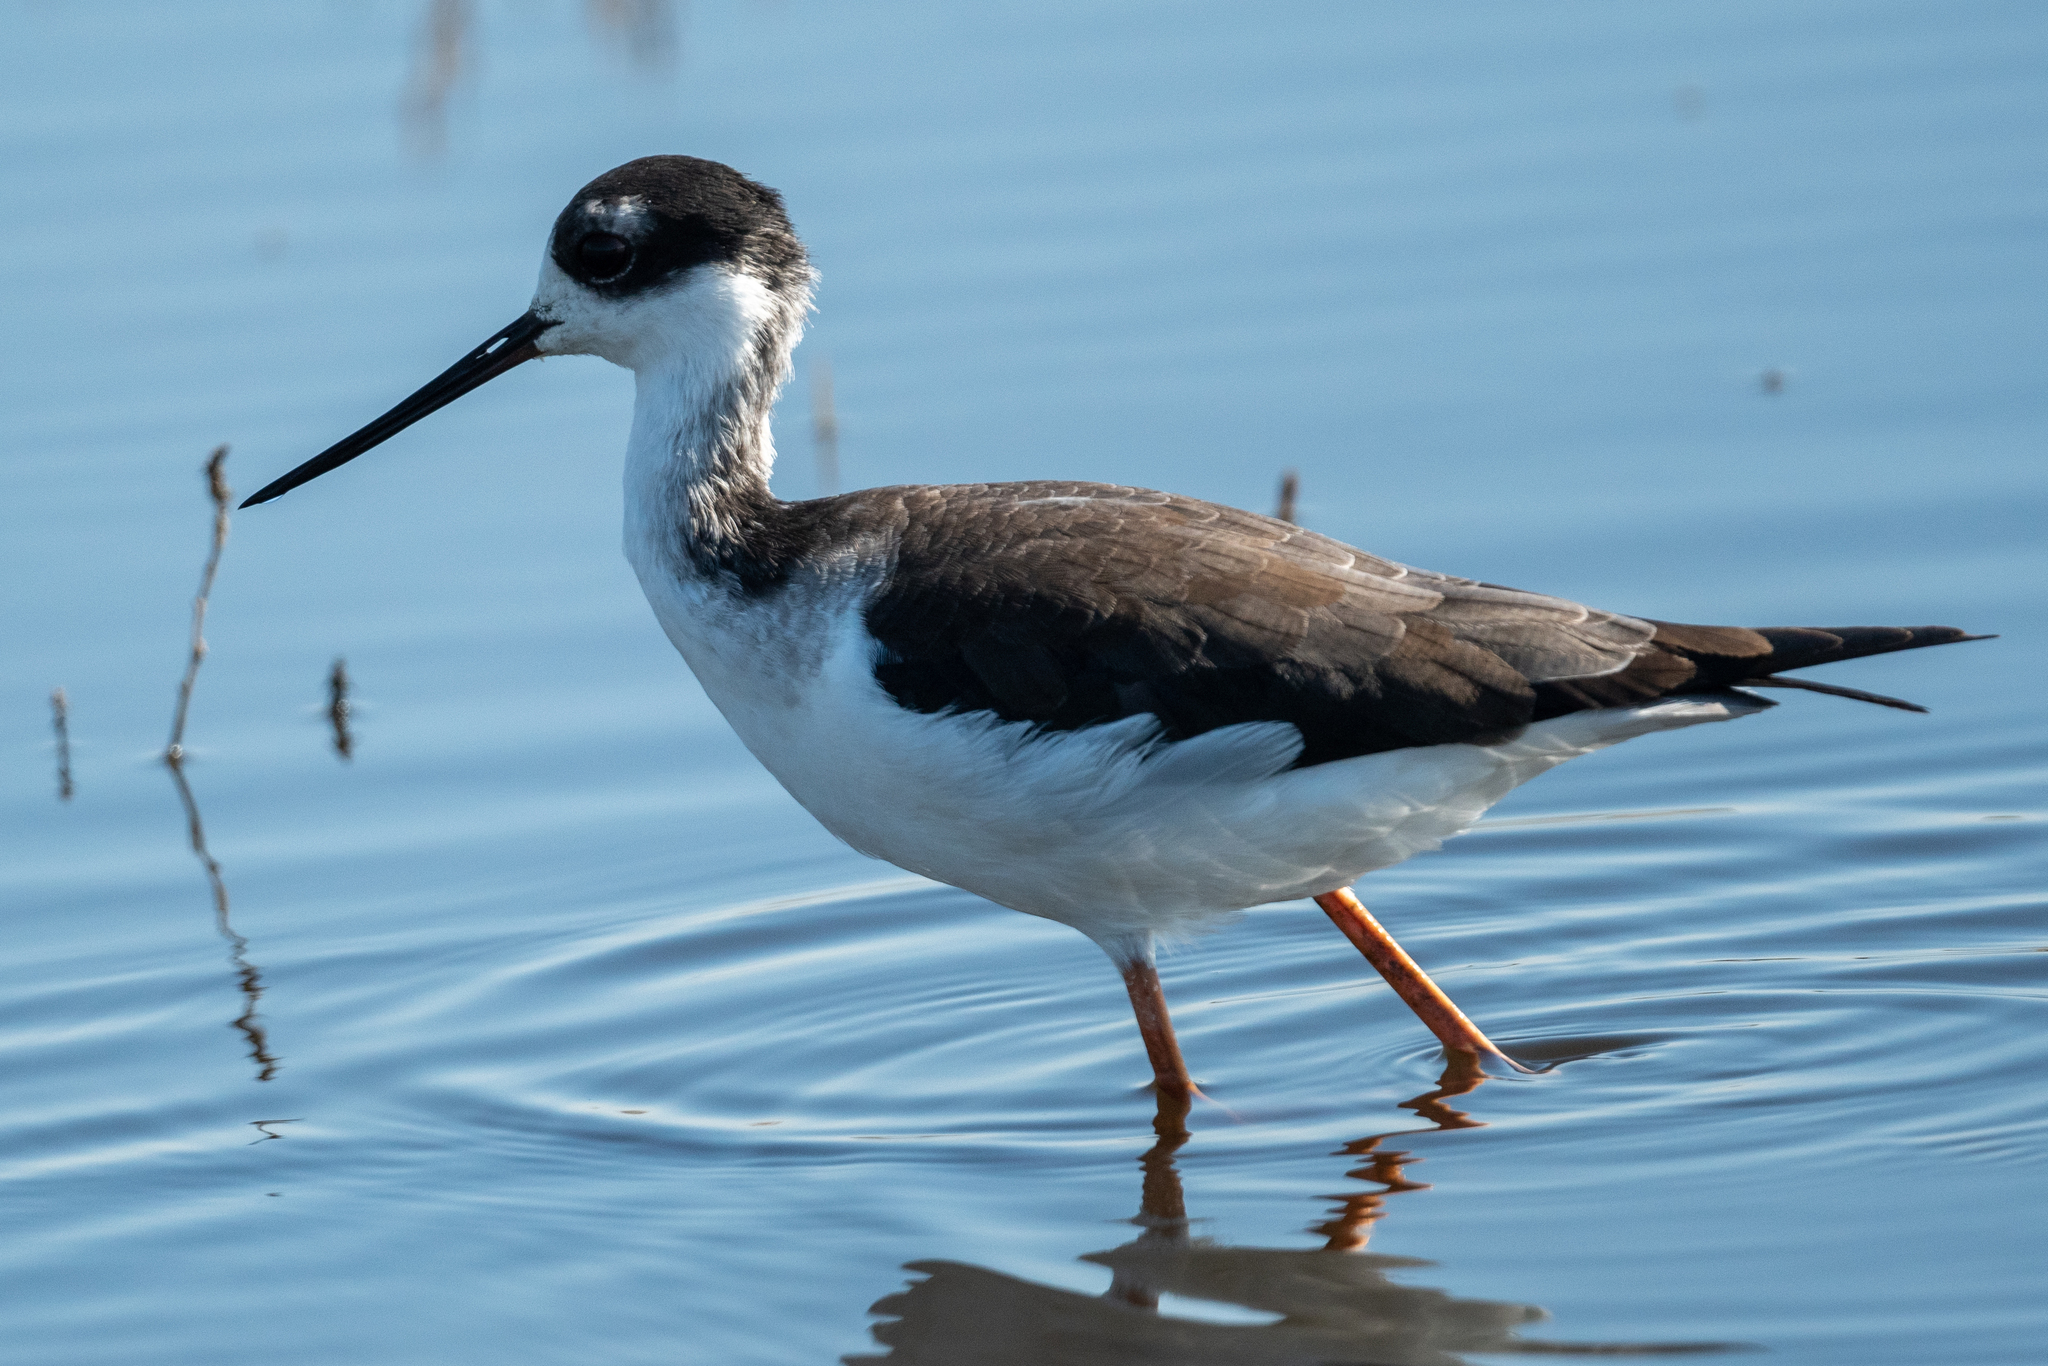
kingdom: Animalia
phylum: Chordata
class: Aves
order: Charadriiformes
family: Recurvirostridae
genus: Himantopus
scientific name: Himantopus mexicanus
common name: Black-necked stilt
